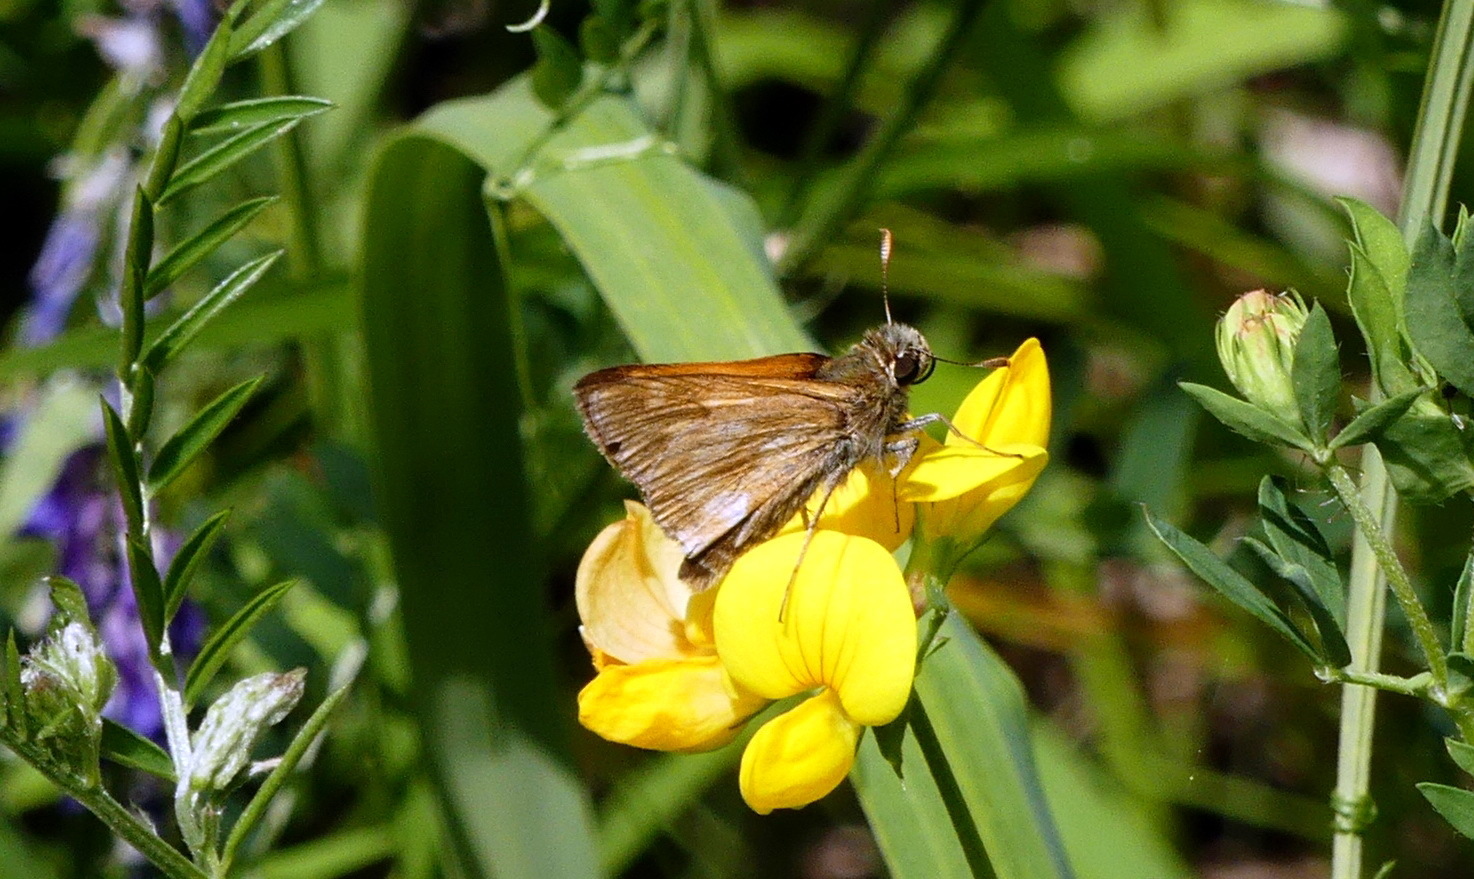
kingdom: Animalia
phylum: Arthropoda
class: Insecta
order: Lepidoptera
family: Hesperiidae
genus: Polites
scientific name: Polites mystic
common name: Long dash
